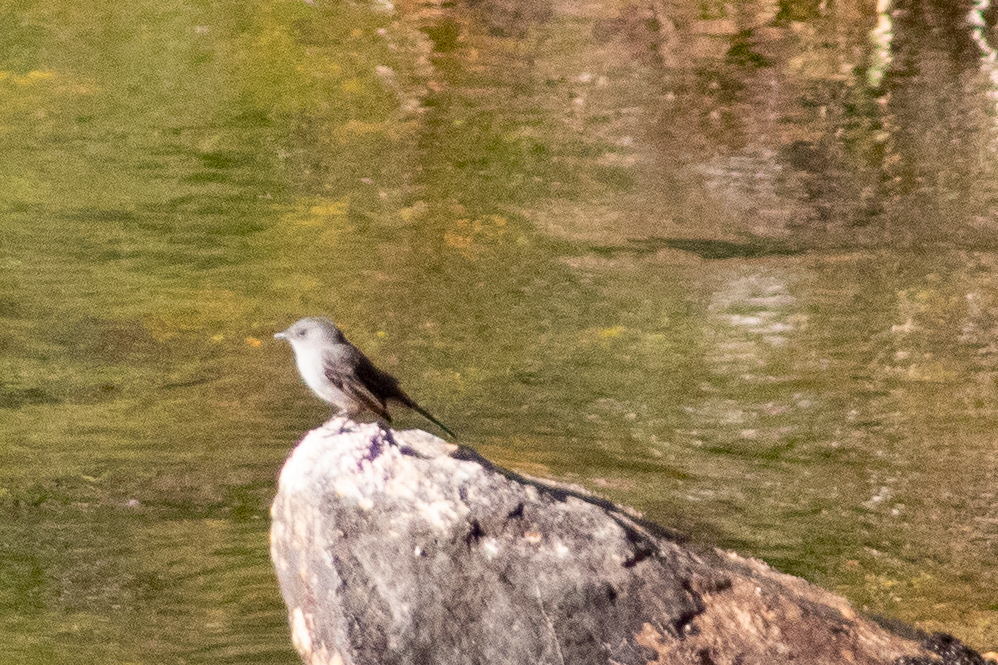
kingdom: Animalia
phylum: Chordata
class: Aves
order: Passeriformes
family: Tyrannidae
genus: Serpophaga
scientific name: Serpophaga nigricans
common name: Sooty tyrannulet
